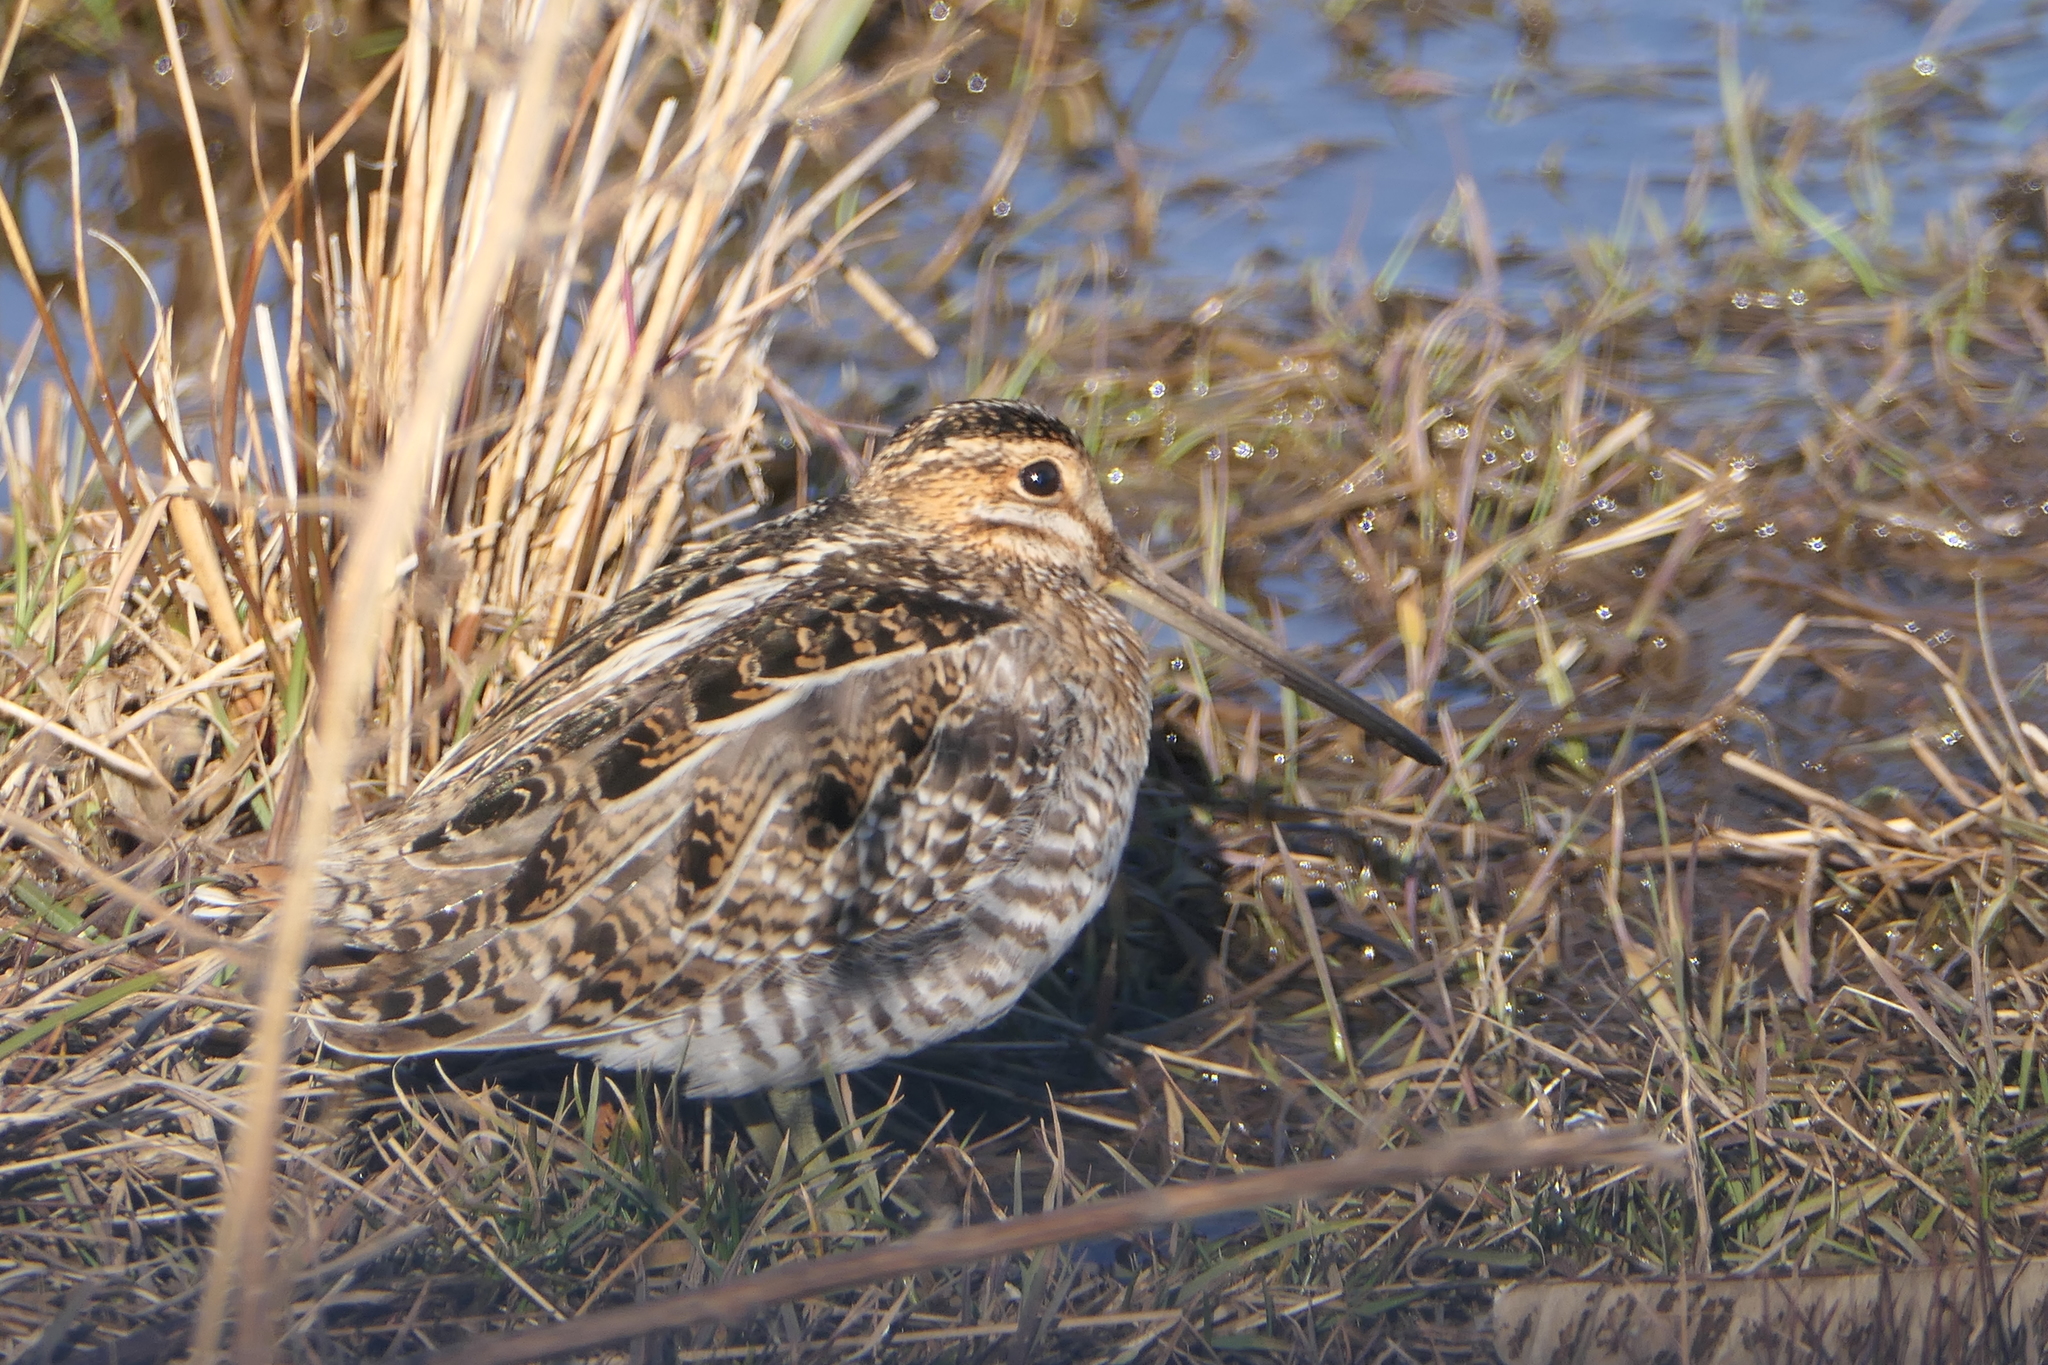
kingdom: Animalia
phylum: Chordata
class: Aves
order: Charadriiformes
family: Scolopacidae
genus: Gallinago
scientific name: Gallinago delicata
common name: Wilson's snipe
